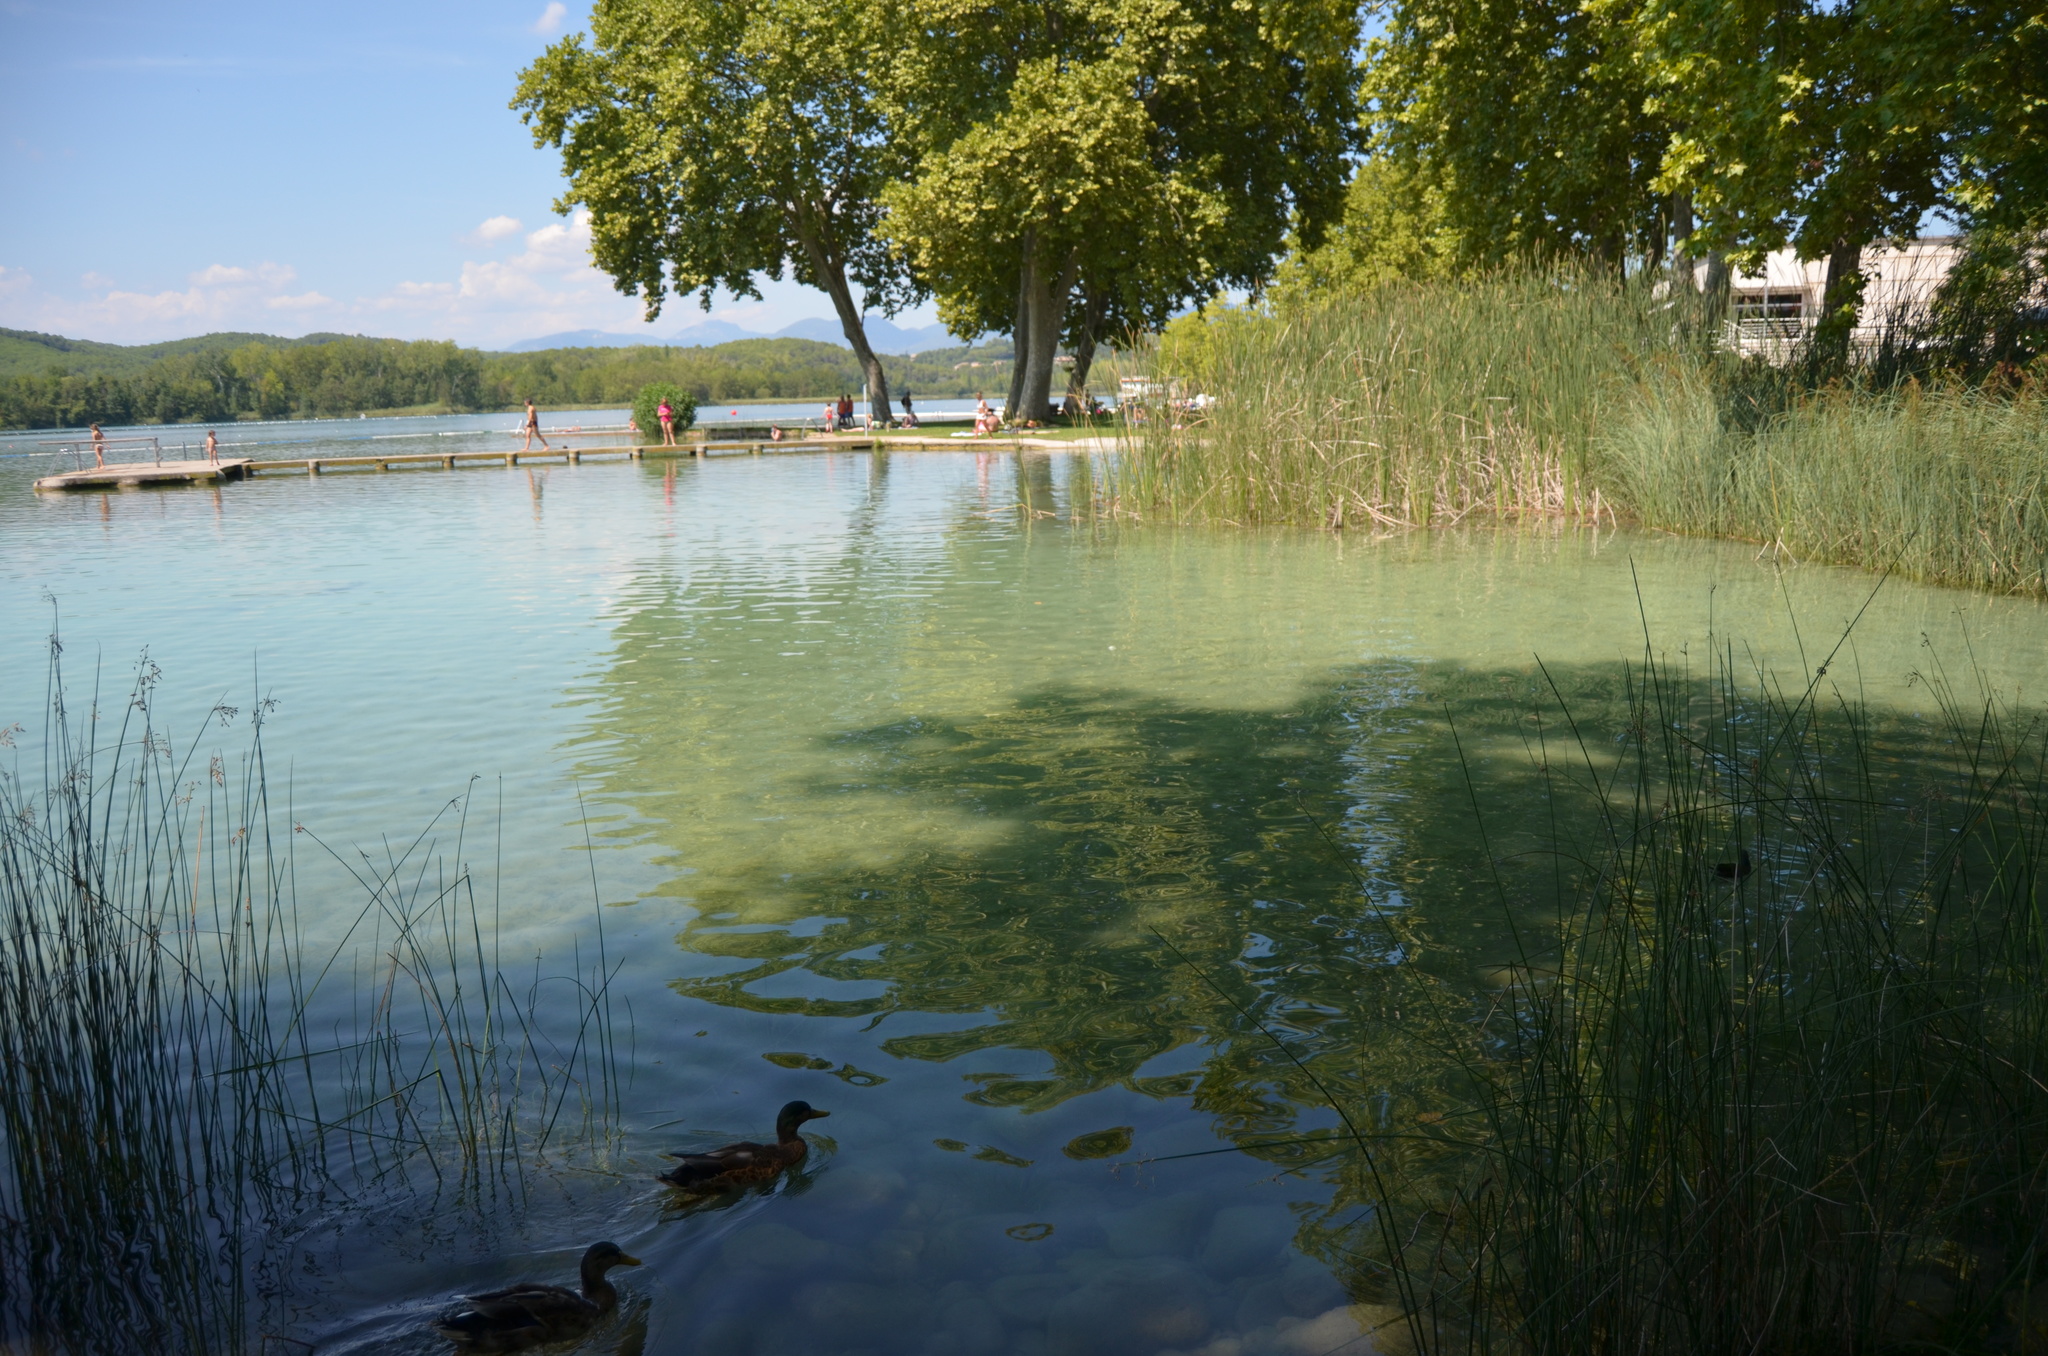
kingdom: Animalia
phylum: Chordata
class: Aves
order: Anseriformes
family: Anatidae
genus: Anas
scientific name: Anas platyrhynchos
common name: Mallard
